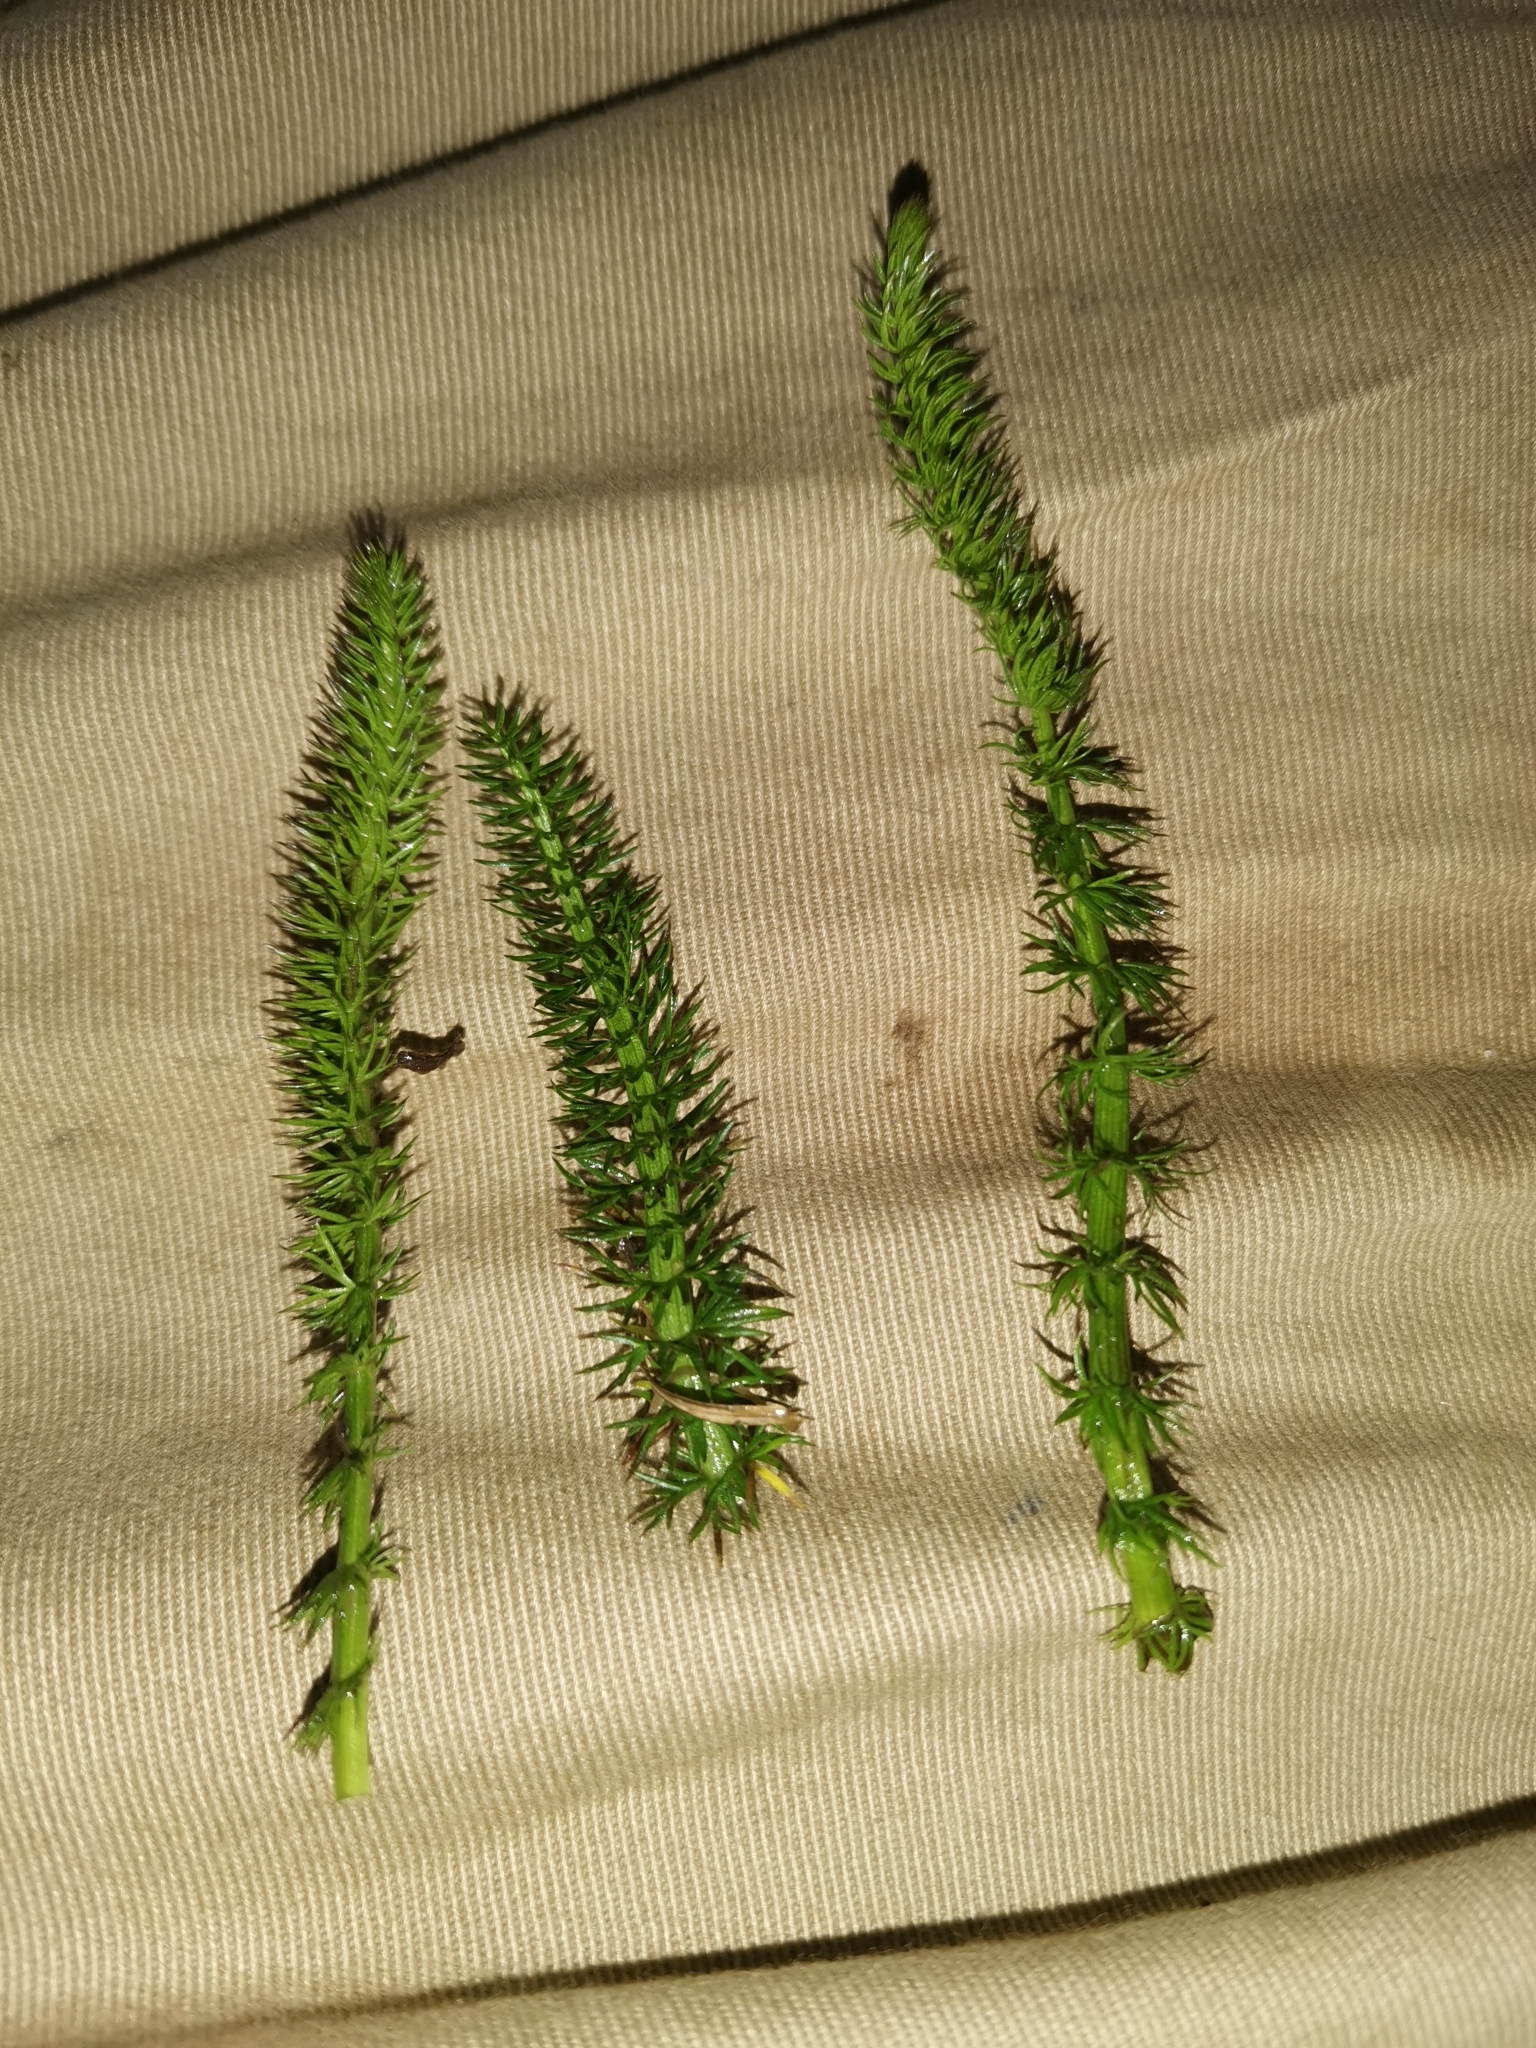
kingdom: Plantae
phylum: Tracheophyta
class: Magnoliopsida
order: Lamiales
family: Plantaginaceae
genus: Hippuris
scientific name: Hippuris vulgaris
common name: Mare's-tail
